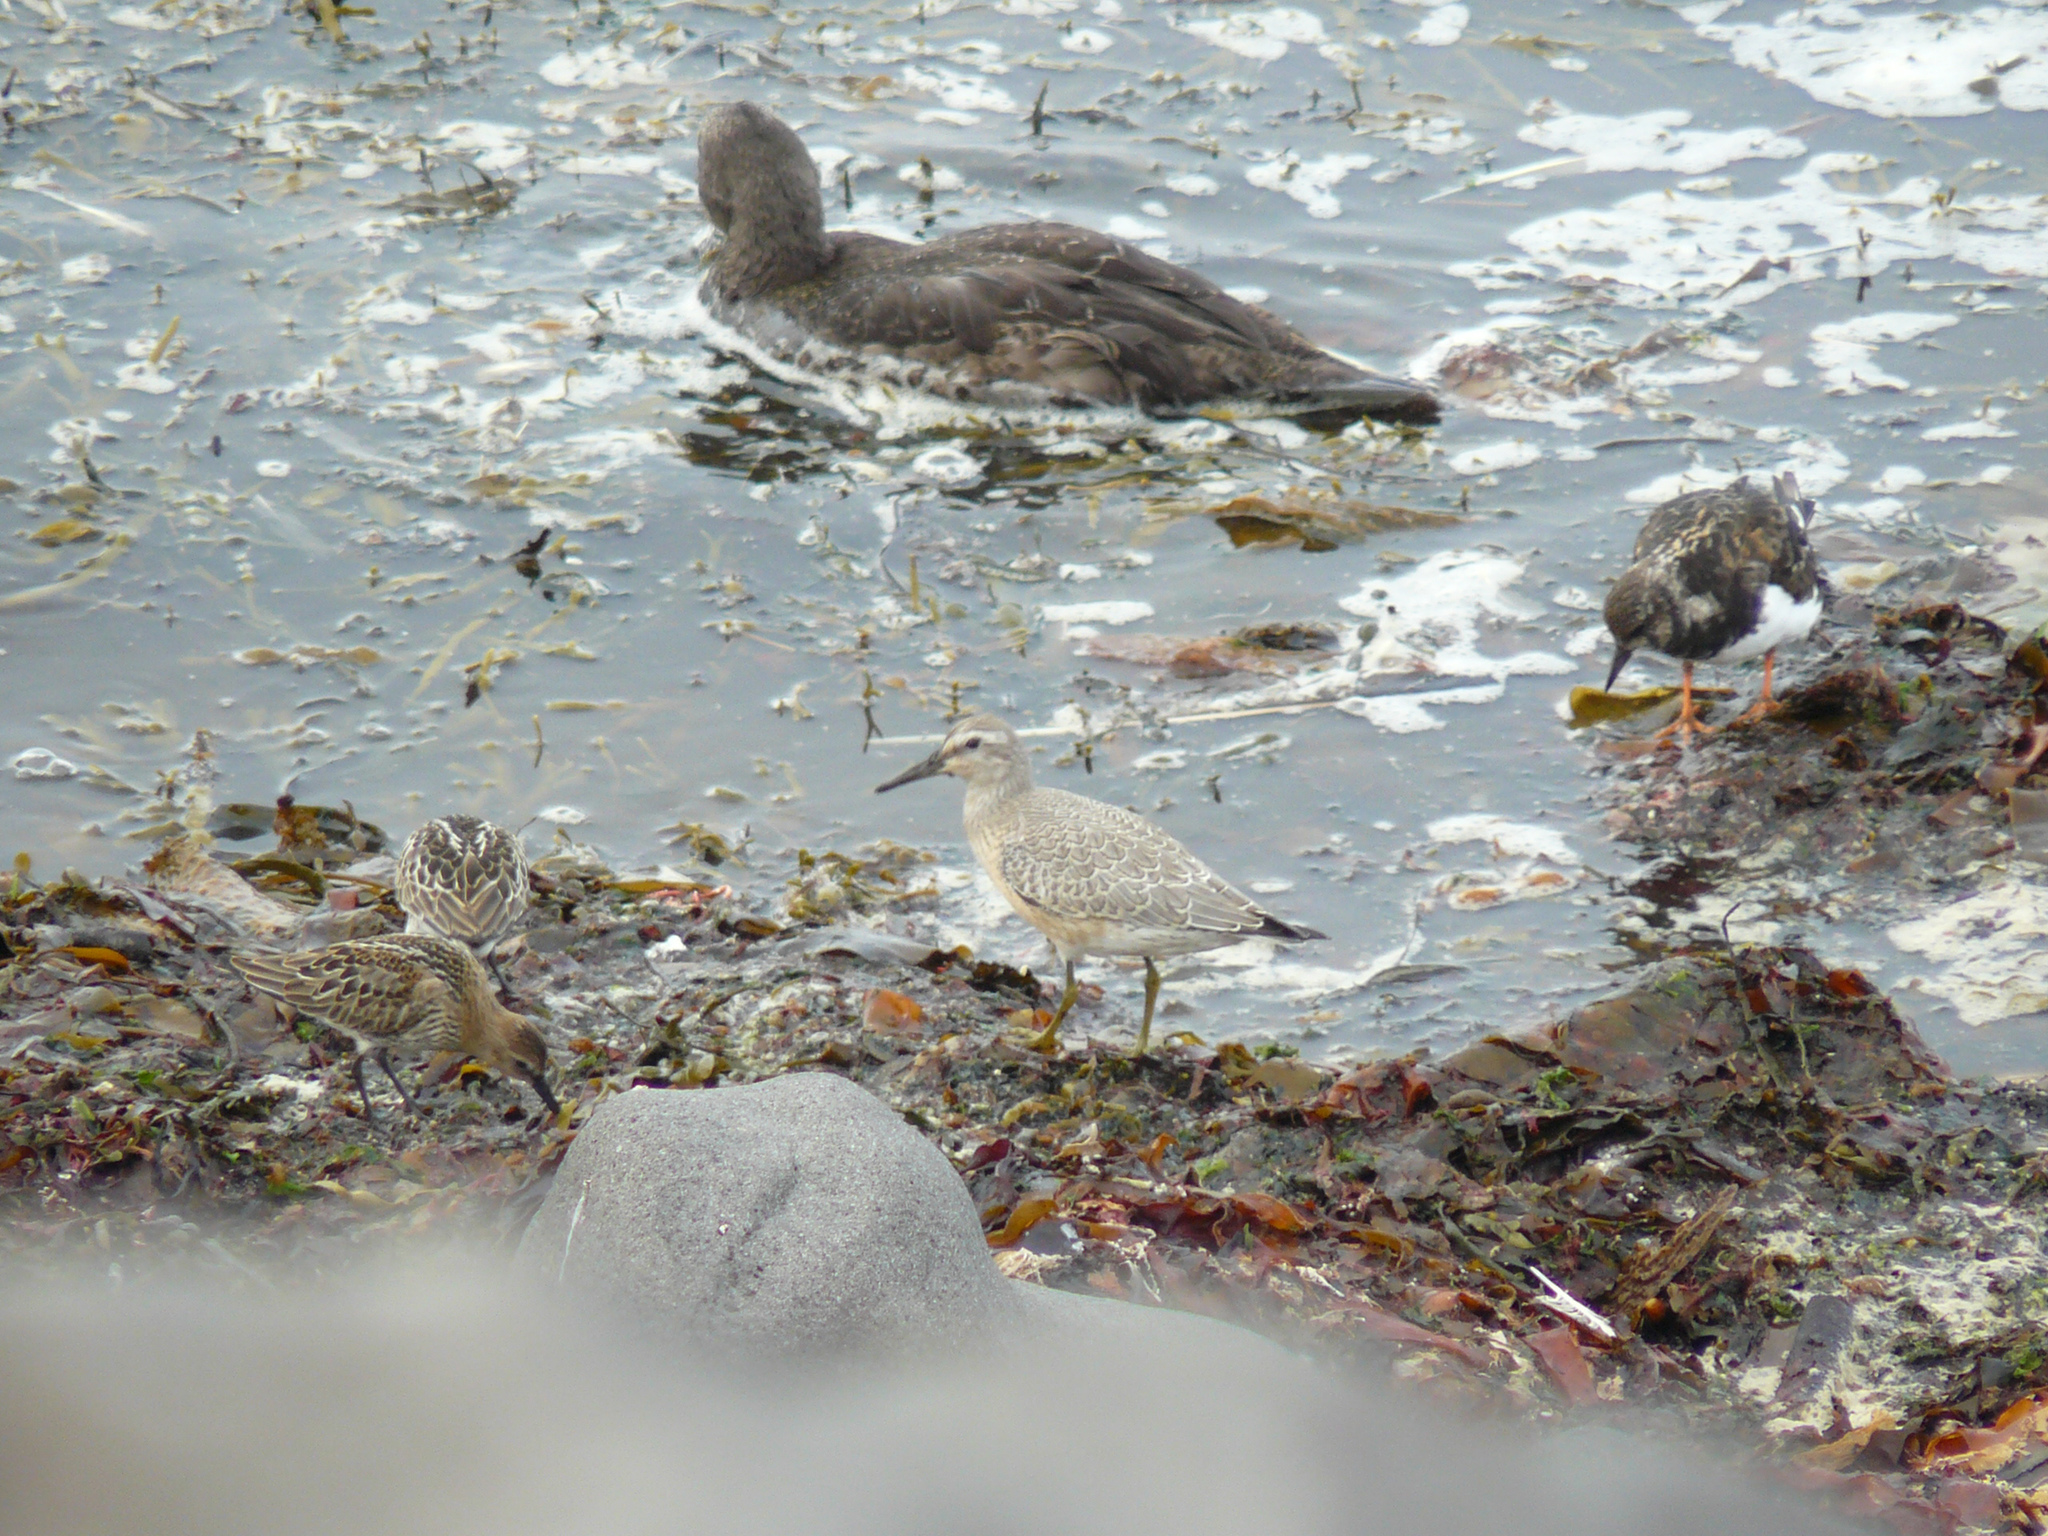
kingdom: Animalia
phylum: Chordata
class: Aves
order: Charadriiformes
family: Scolopacidae
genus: Calidris
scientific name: Calidris canutus
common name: Red knot
